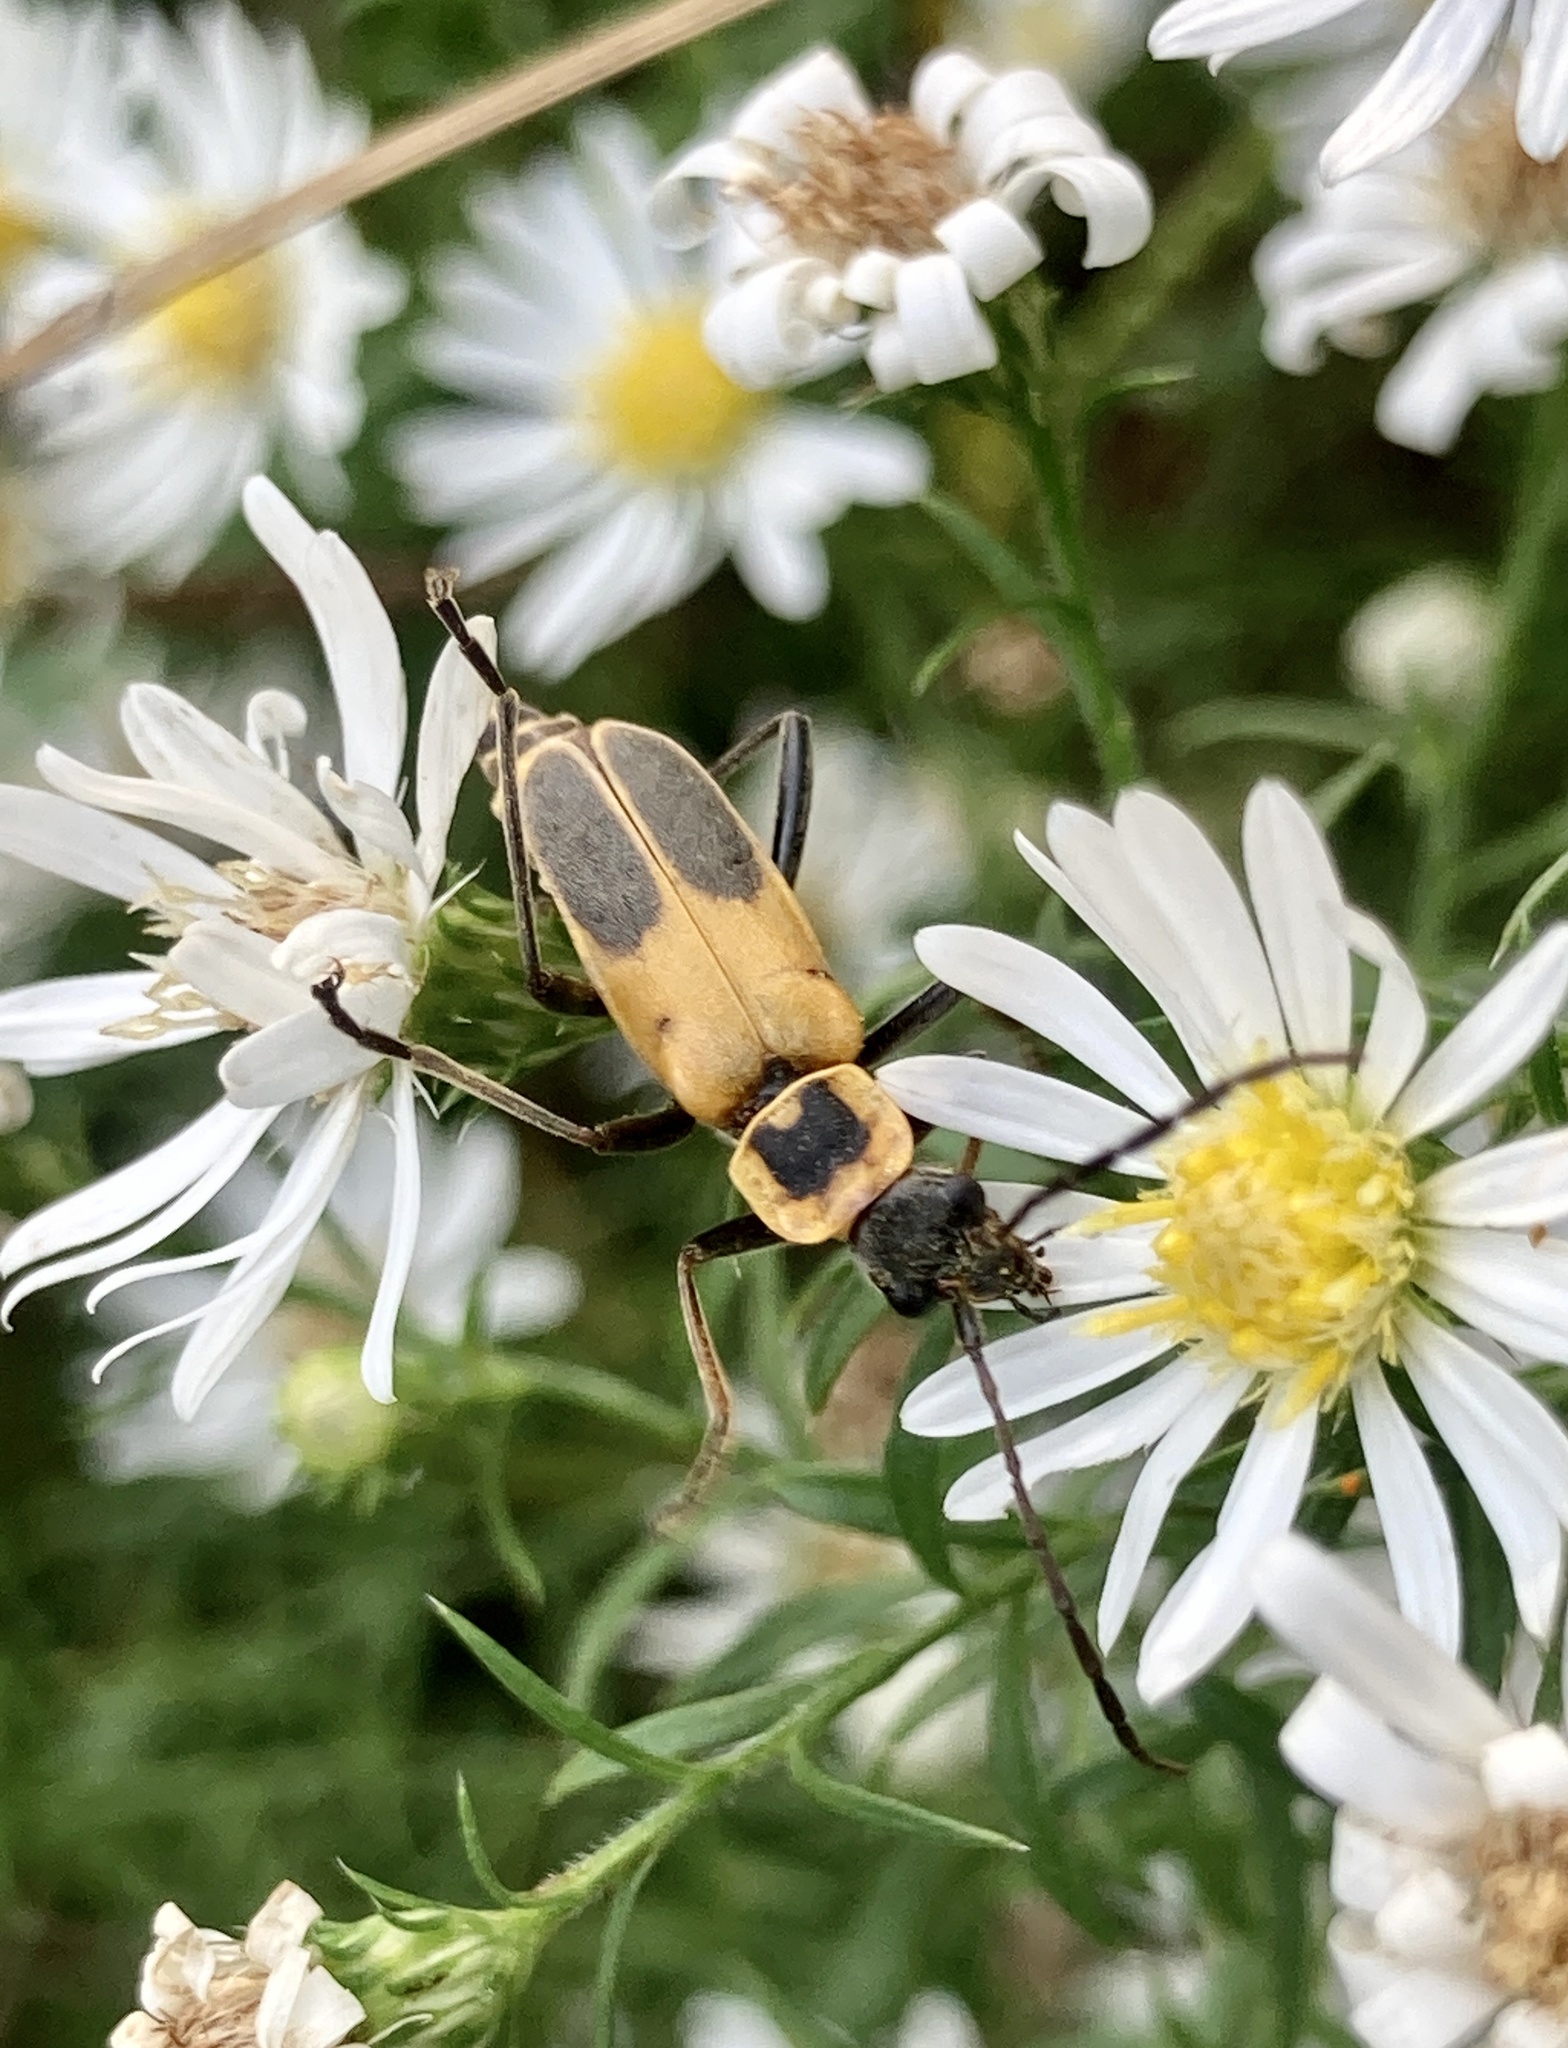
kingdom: Animalia
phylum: Arthropoda
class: Insecta
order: Coleoptera
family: Cantharidae
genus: Chauliognathus
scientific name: Chauliognathus pensylvanicus
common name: Goldenrod soldier beetle
